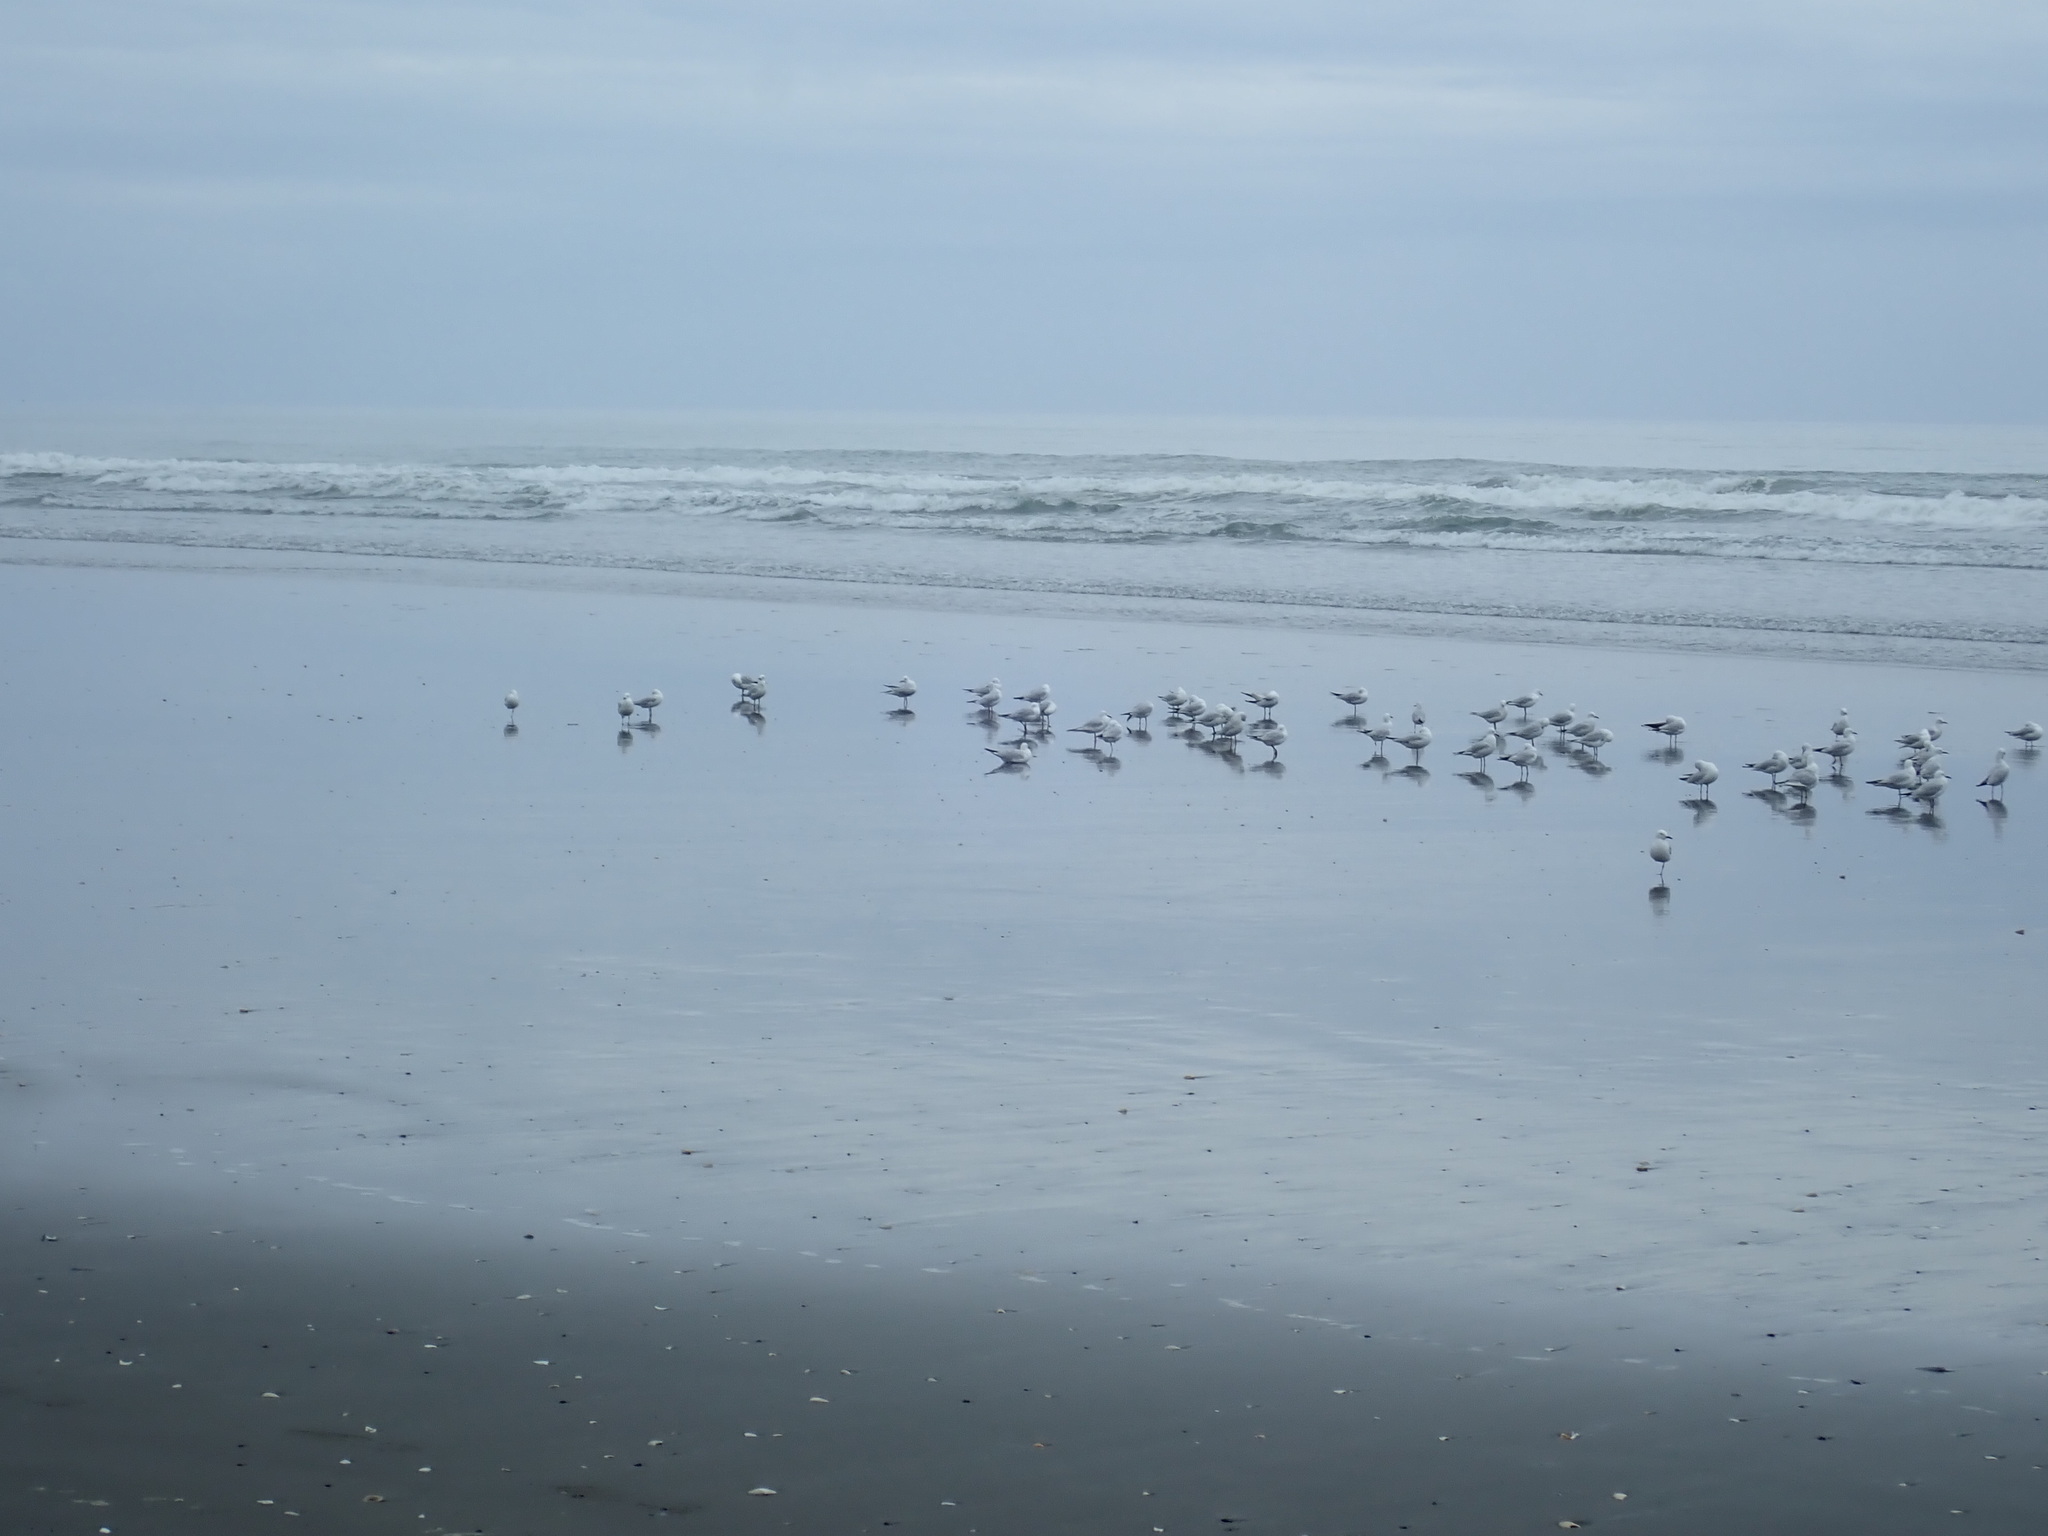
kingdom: Animalia
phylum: Chordata
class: Aves
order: Charadriiformes
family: Laridae
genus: Chroicocephalus
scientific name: Chroicocephalus bulleri
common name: Black-billed gull
